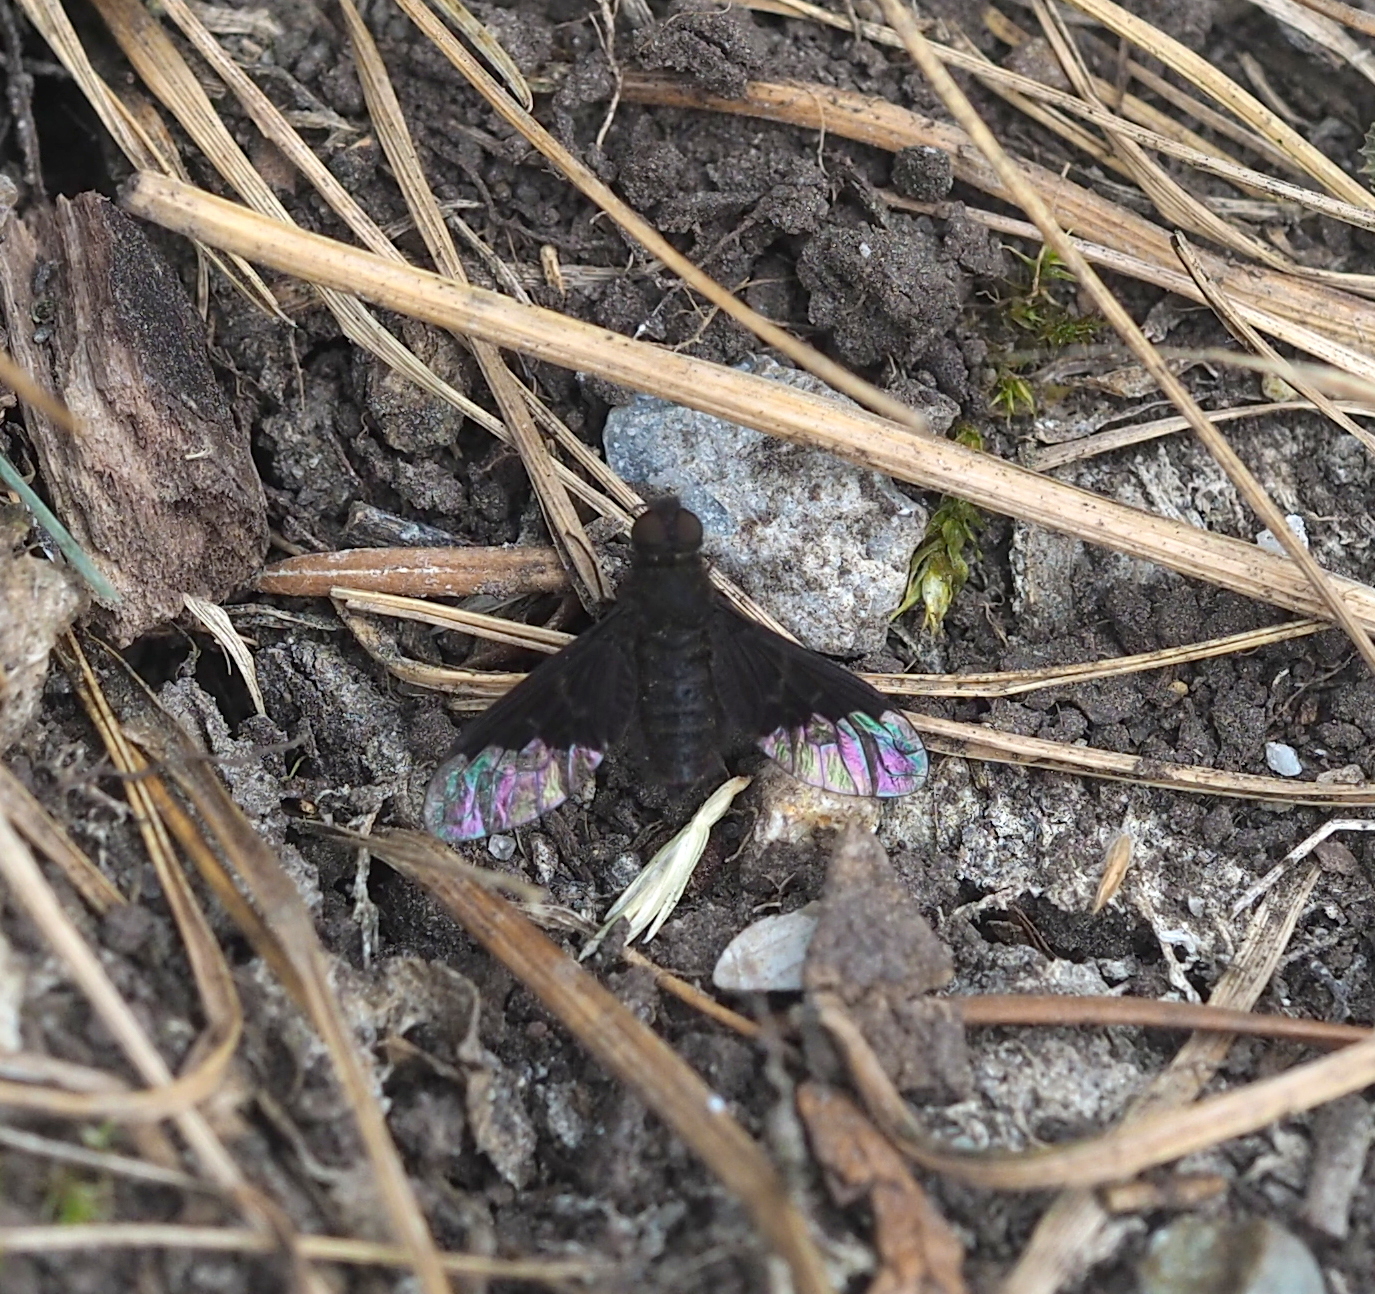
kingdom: Animalia
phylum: Arthropoda
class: Insecta
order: Diptera
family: Bombyliidae
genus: Hemipenthes
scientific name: Hemipenthes morio
